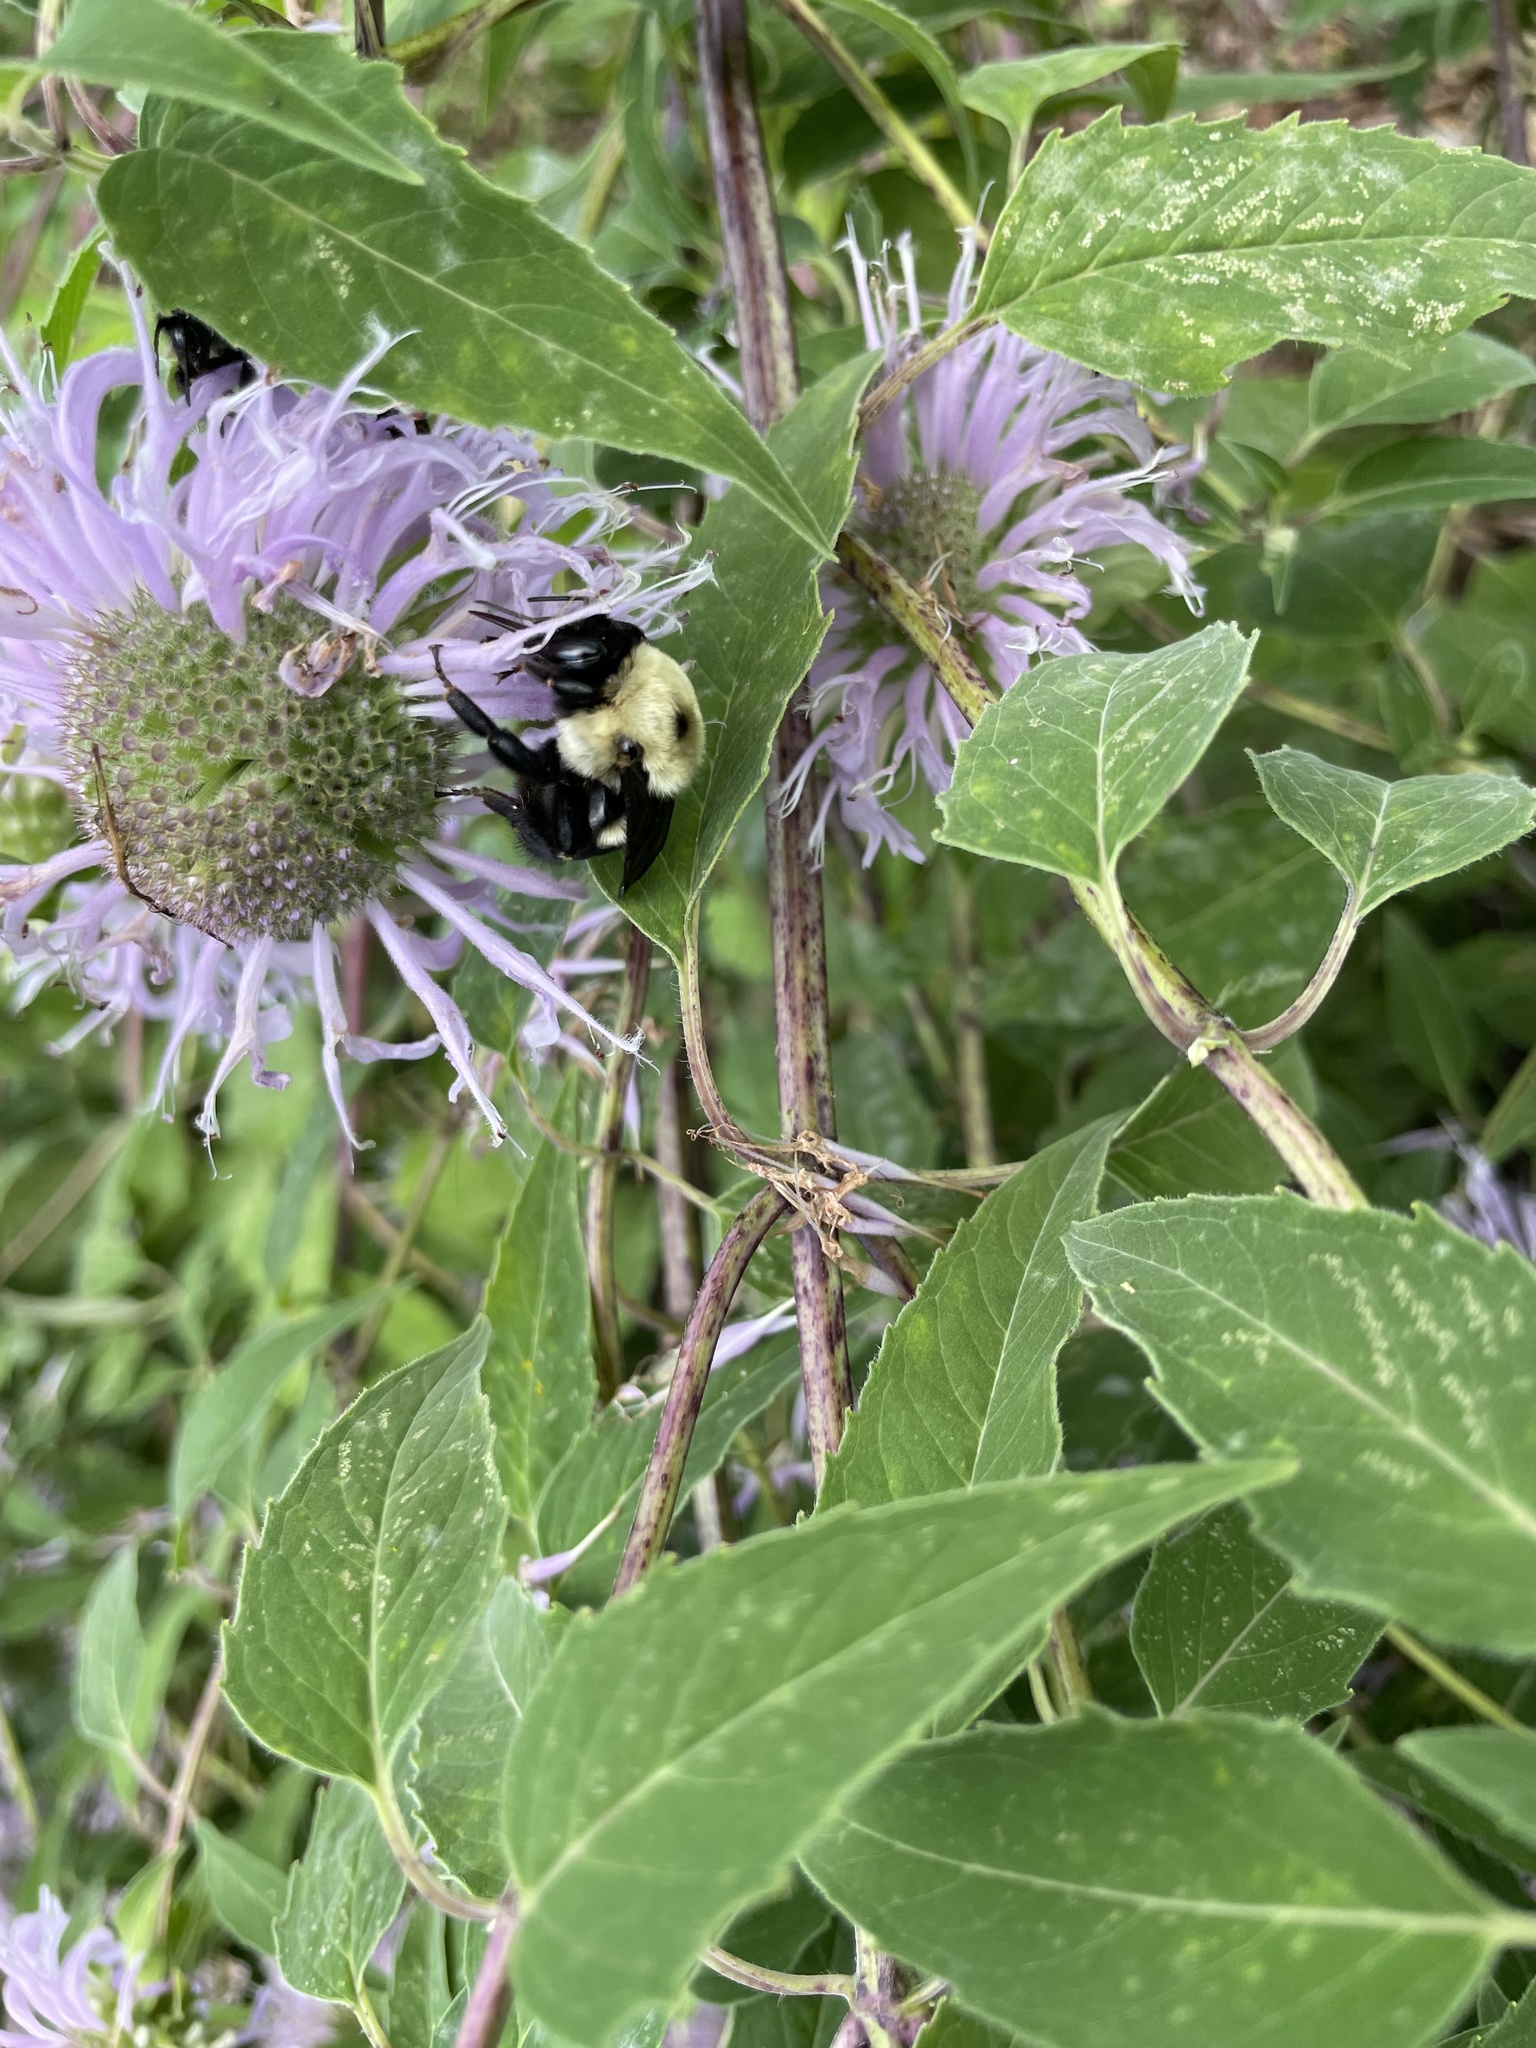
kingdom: Animalia
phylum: Arthropoda
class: Insecta
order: Hymenoptera
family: Apidae
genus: Bombus
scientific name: Bombus griseocollis
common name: Brown-belted bumble bee
